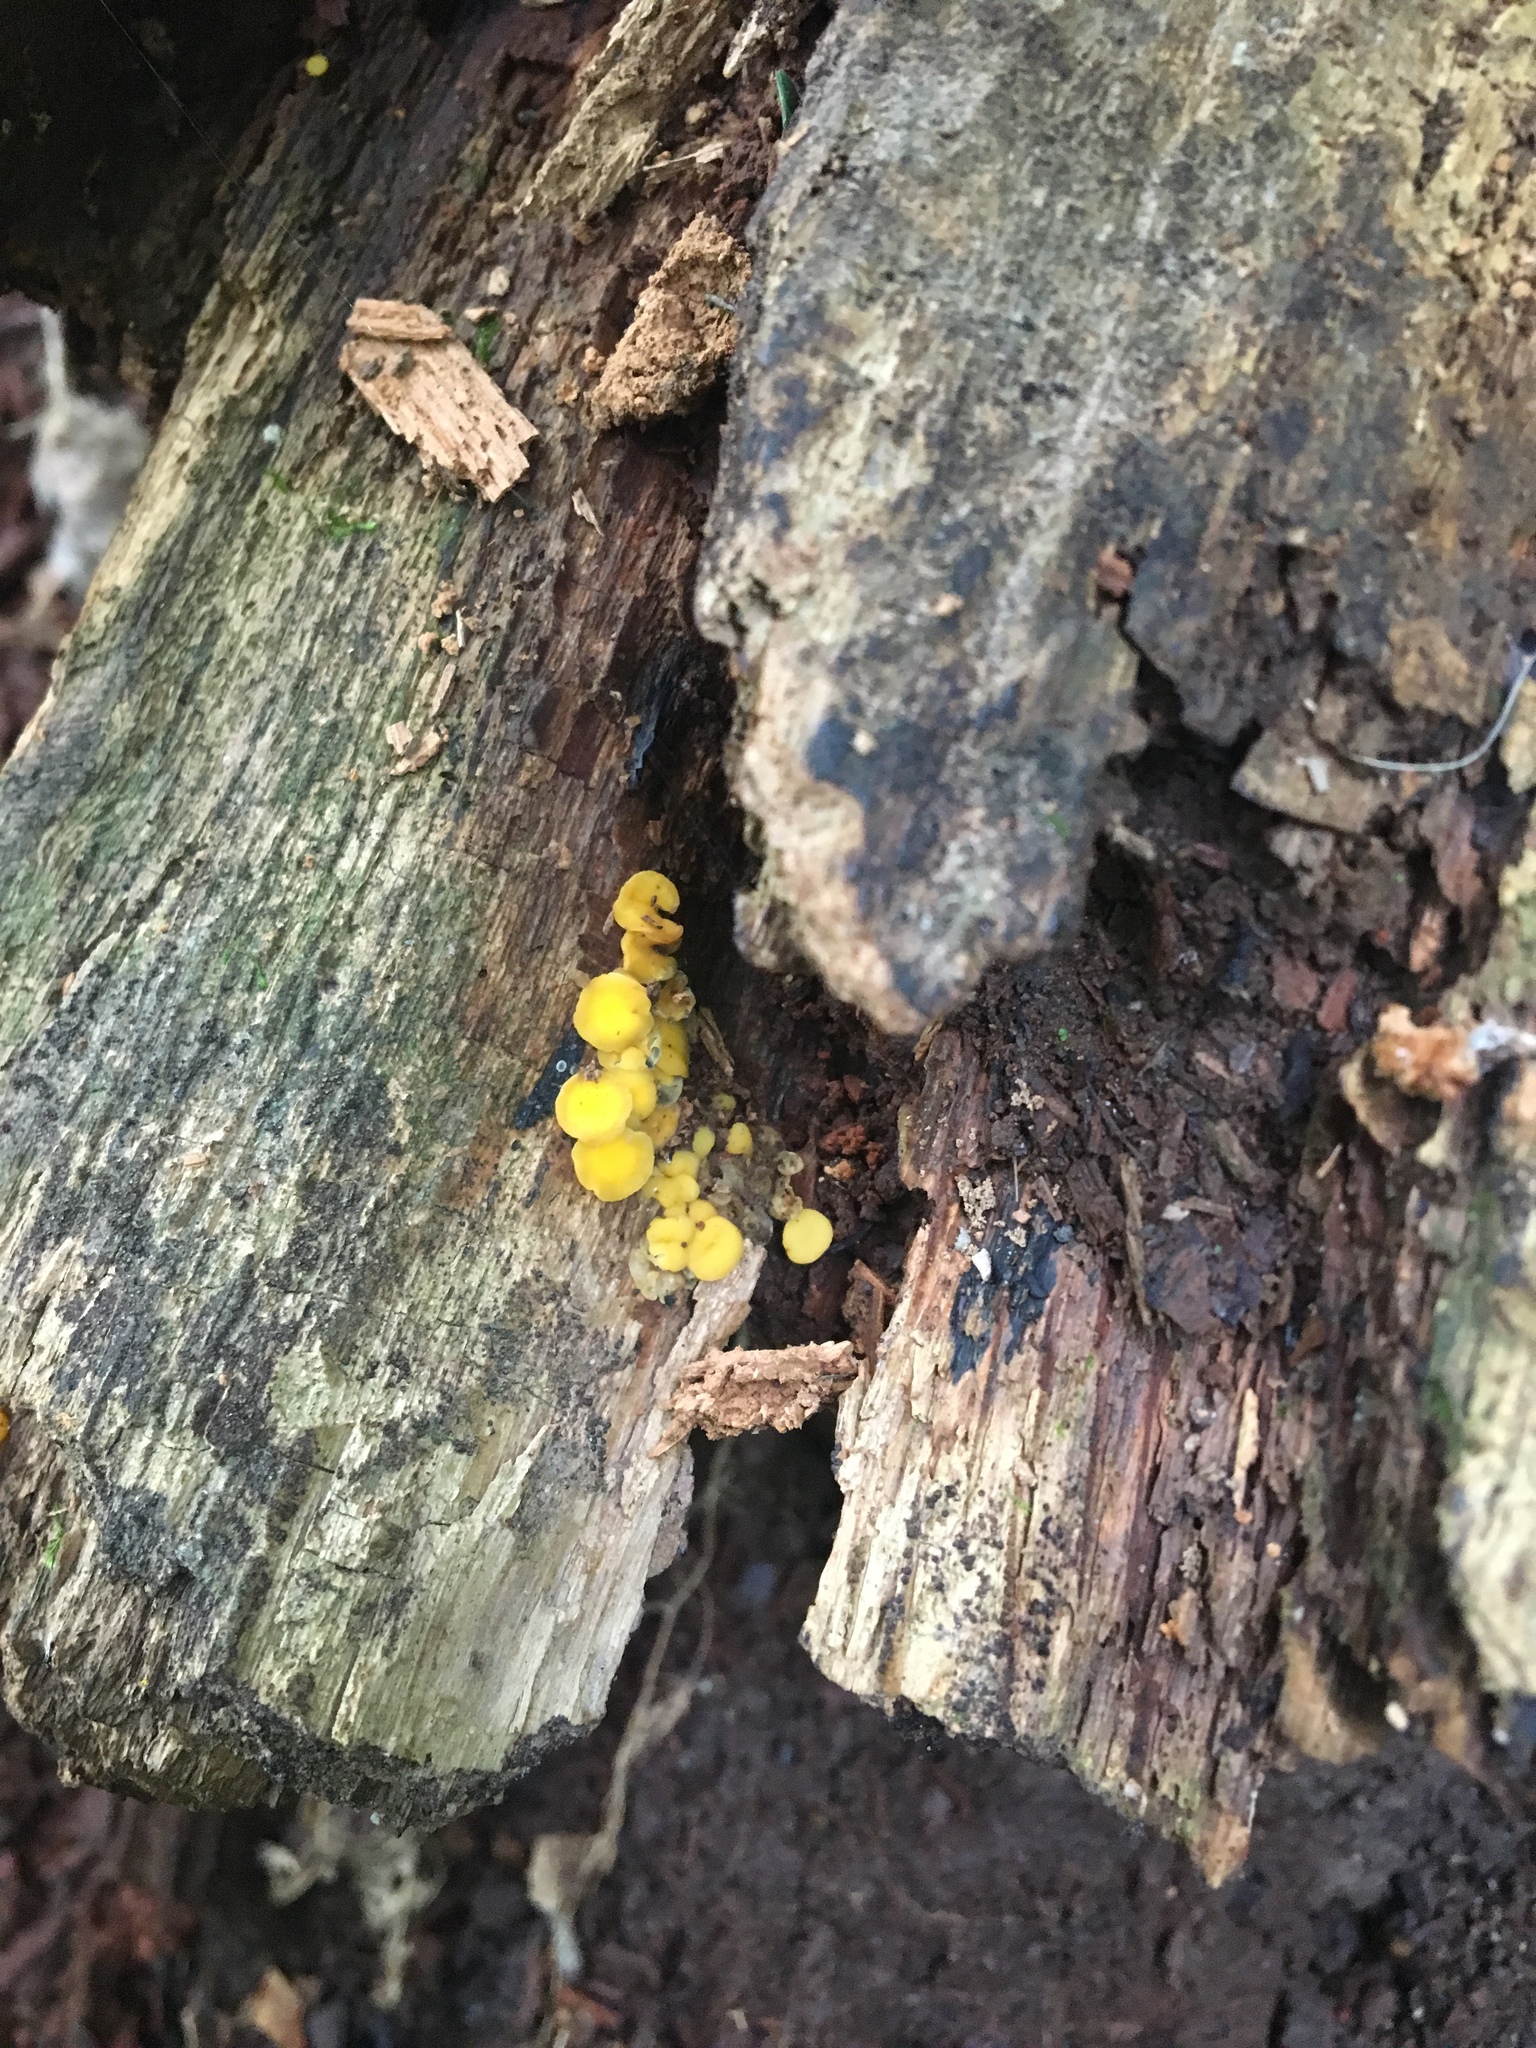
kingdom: Fungi
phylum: Ascomycota
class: Leotiomycetes
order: Helotiales
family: Pezizellaceae
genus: Calycina
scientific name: Calycina citrina
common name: Yellow fairy cups
